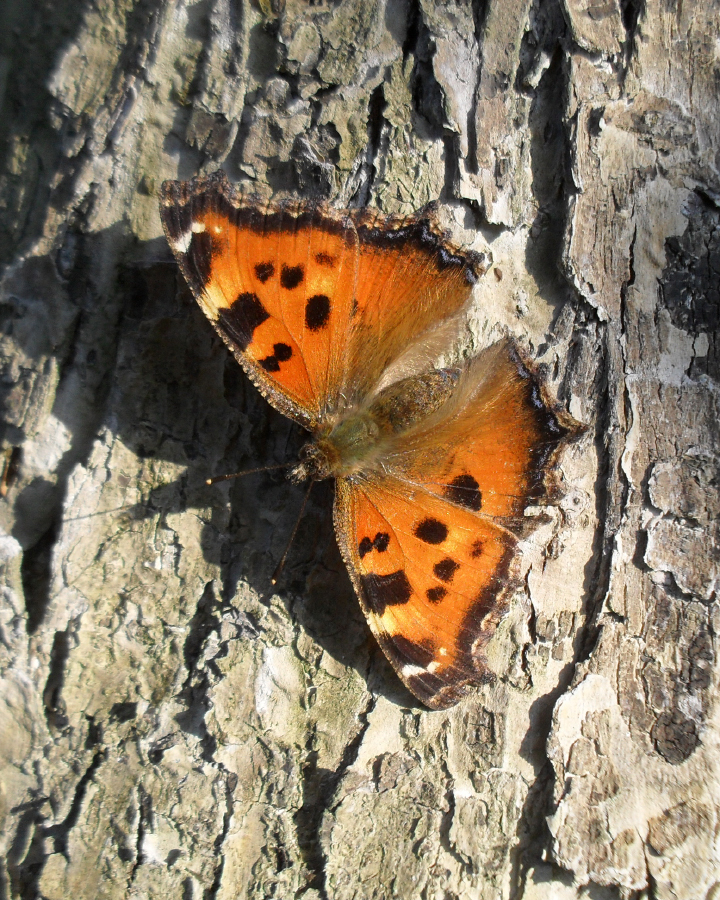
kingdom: Animalia
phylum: Arthropoda
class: Insecta
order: Lepidoptera
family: Nymphalidae
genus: Nymphalis
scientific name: Nymphalis xanthomelas
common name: Scarce tortoiseshell
